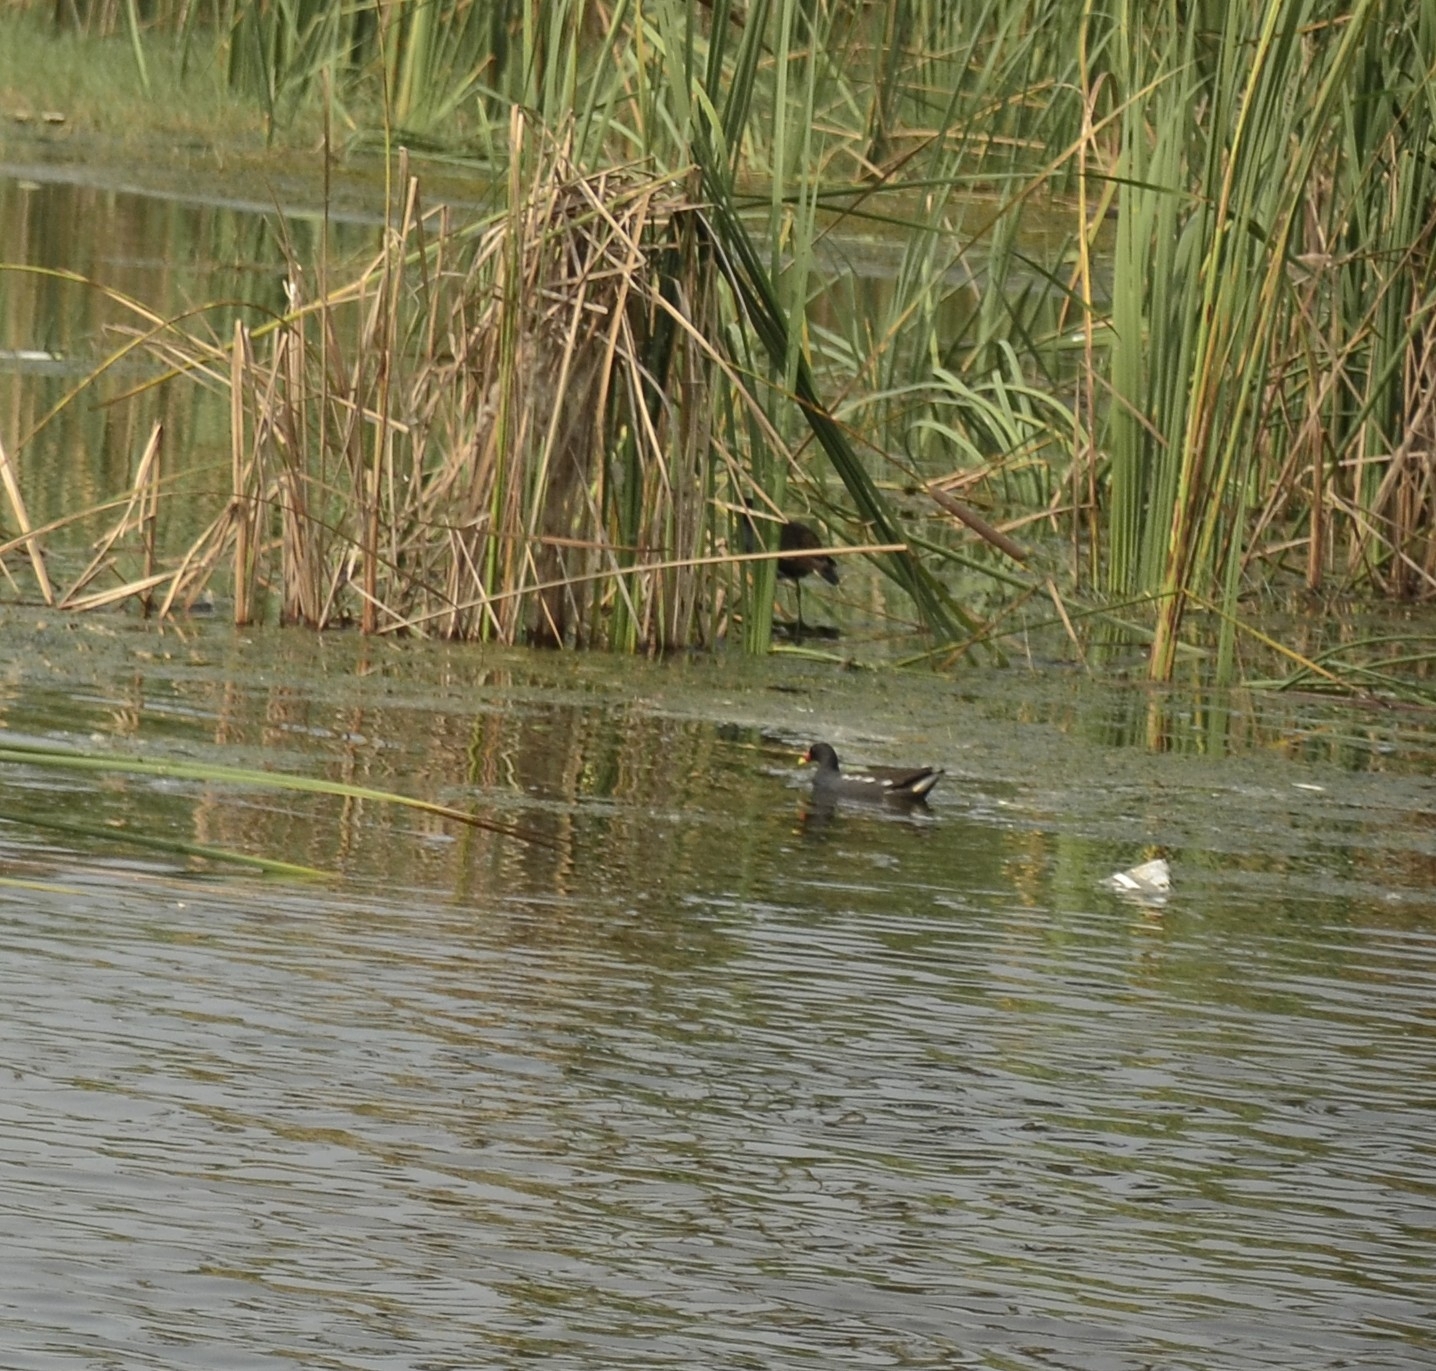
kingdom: Animalia
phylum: Chordata
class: Aves
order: Gruiformes
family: Rallidae
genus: Gallinula
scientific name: Gallinula chloropus
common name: Common moorhen
